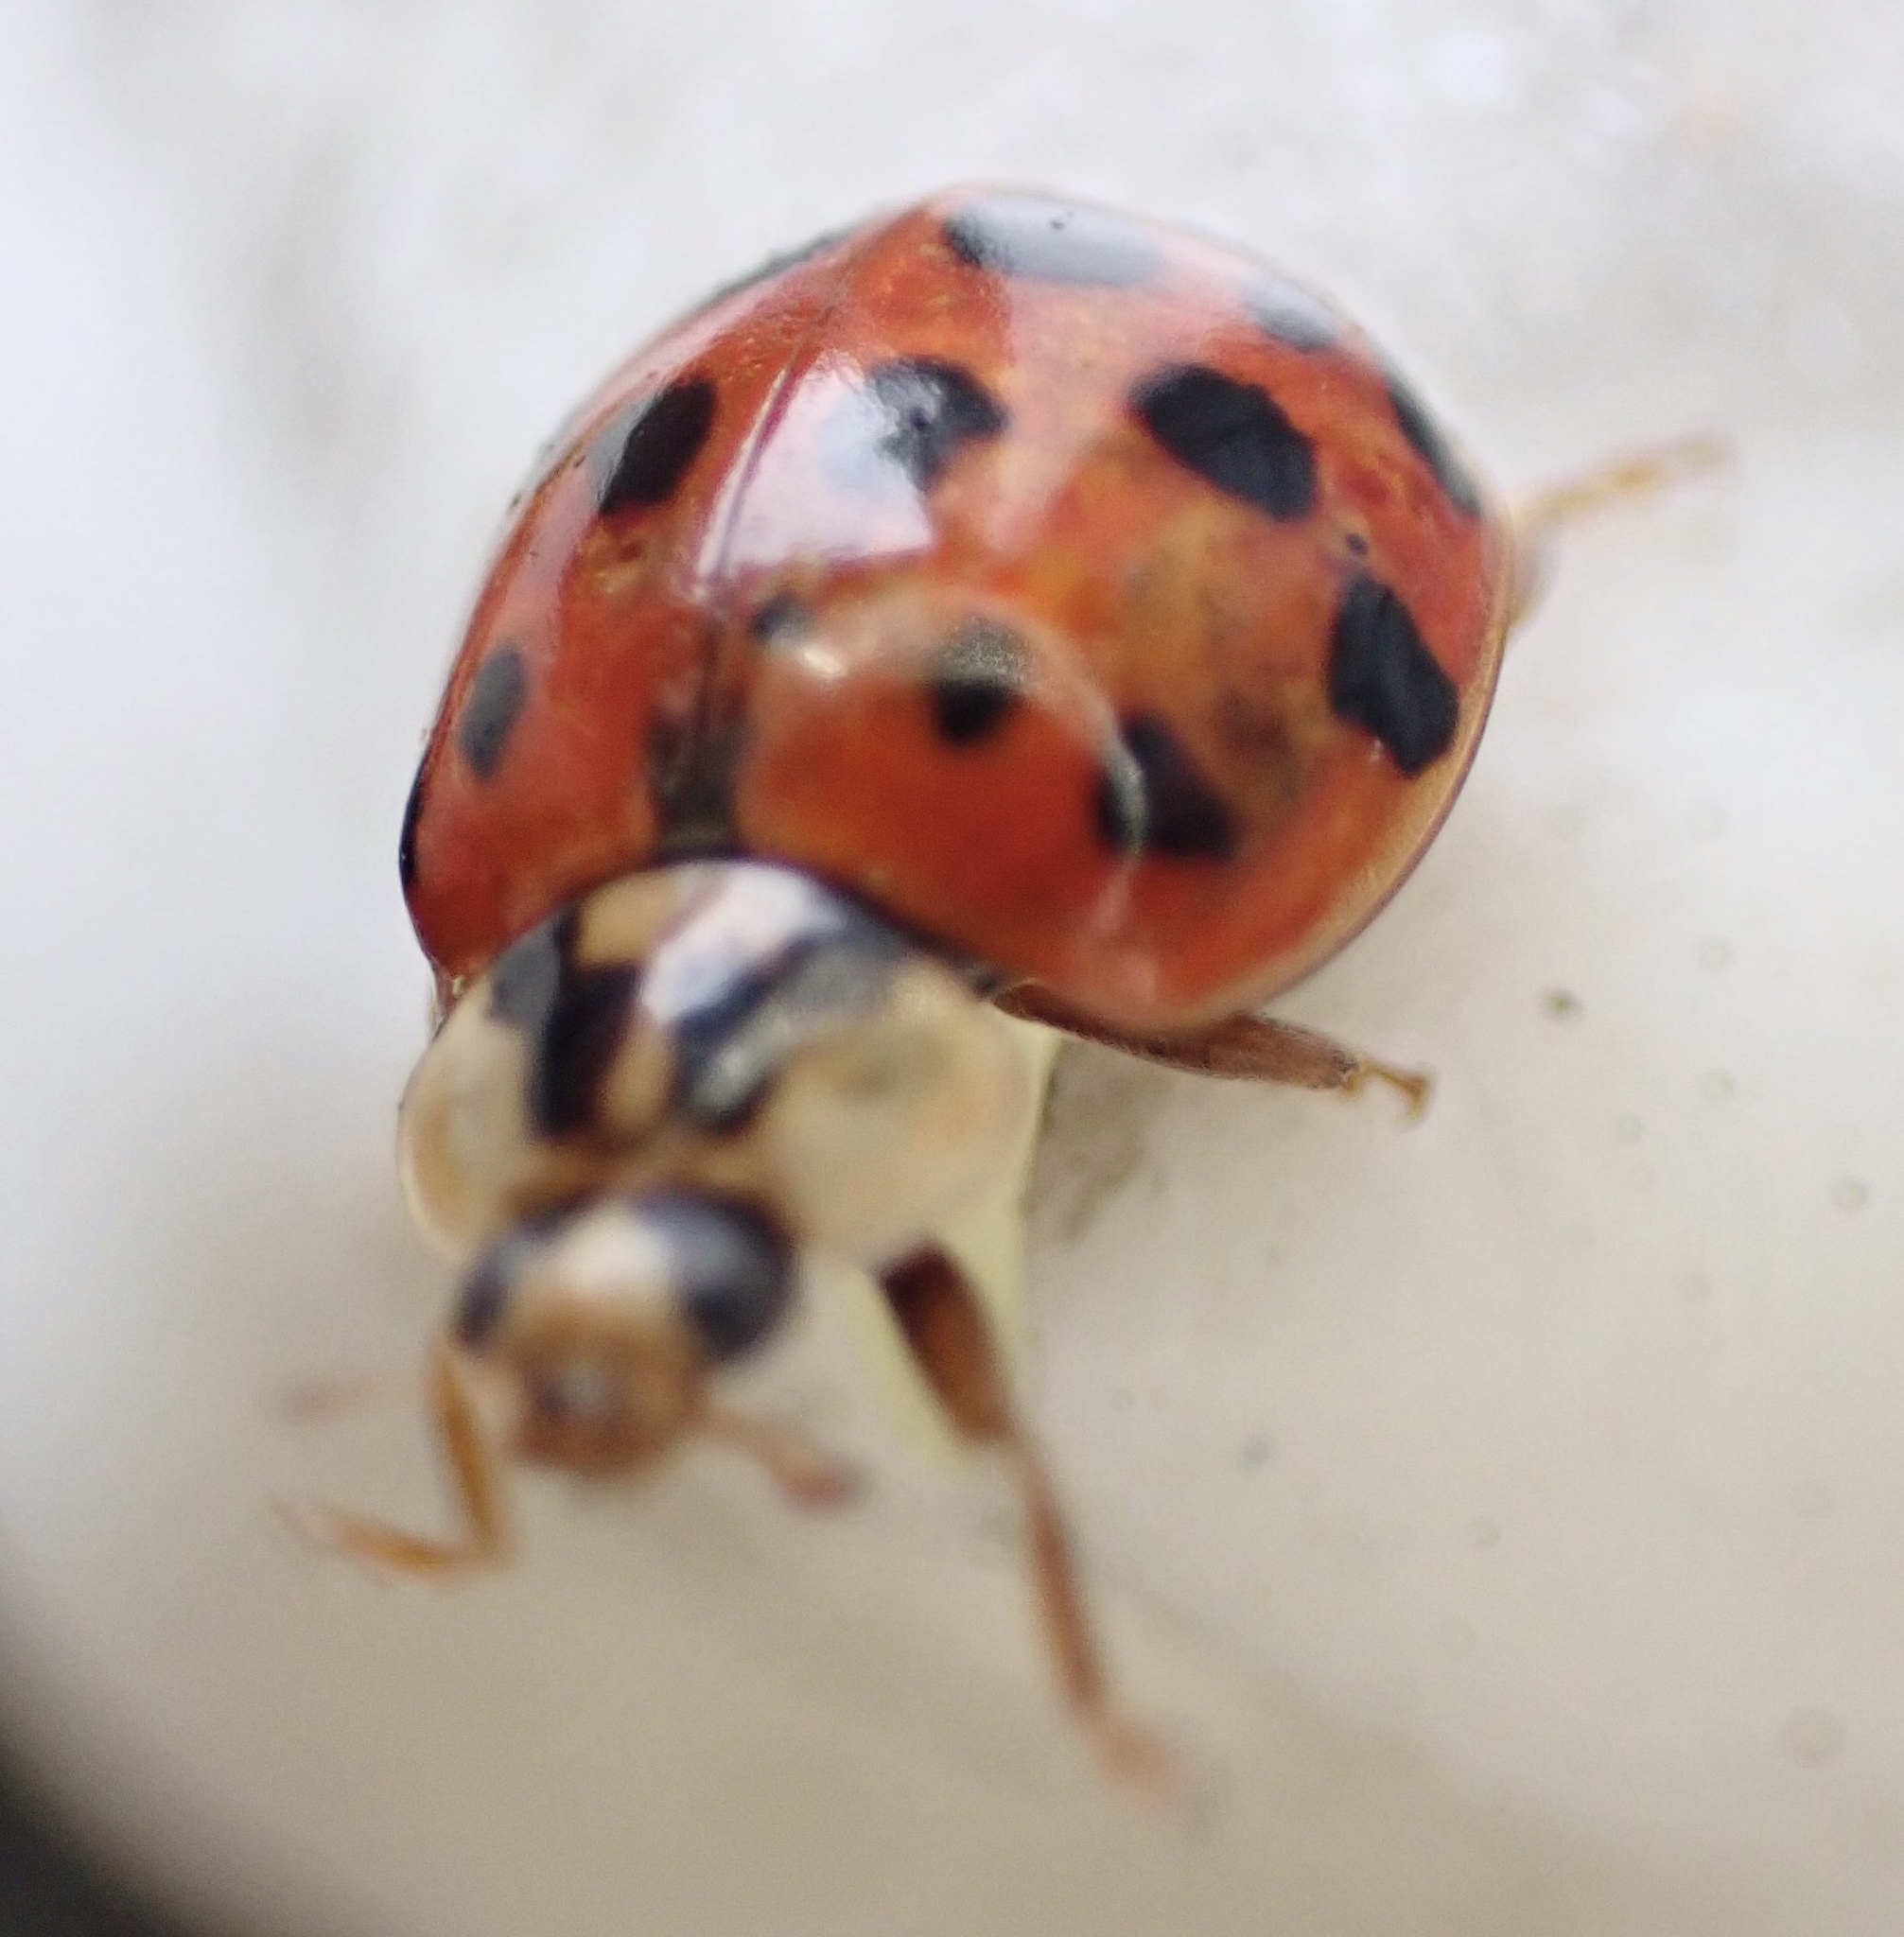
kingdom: Animalia
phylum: Arthropoda
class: Insecta
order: Coleoptera
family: Coccinellidae
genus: Harmonia
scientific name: Harmonia axyridis
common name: Harlequin ladybird
